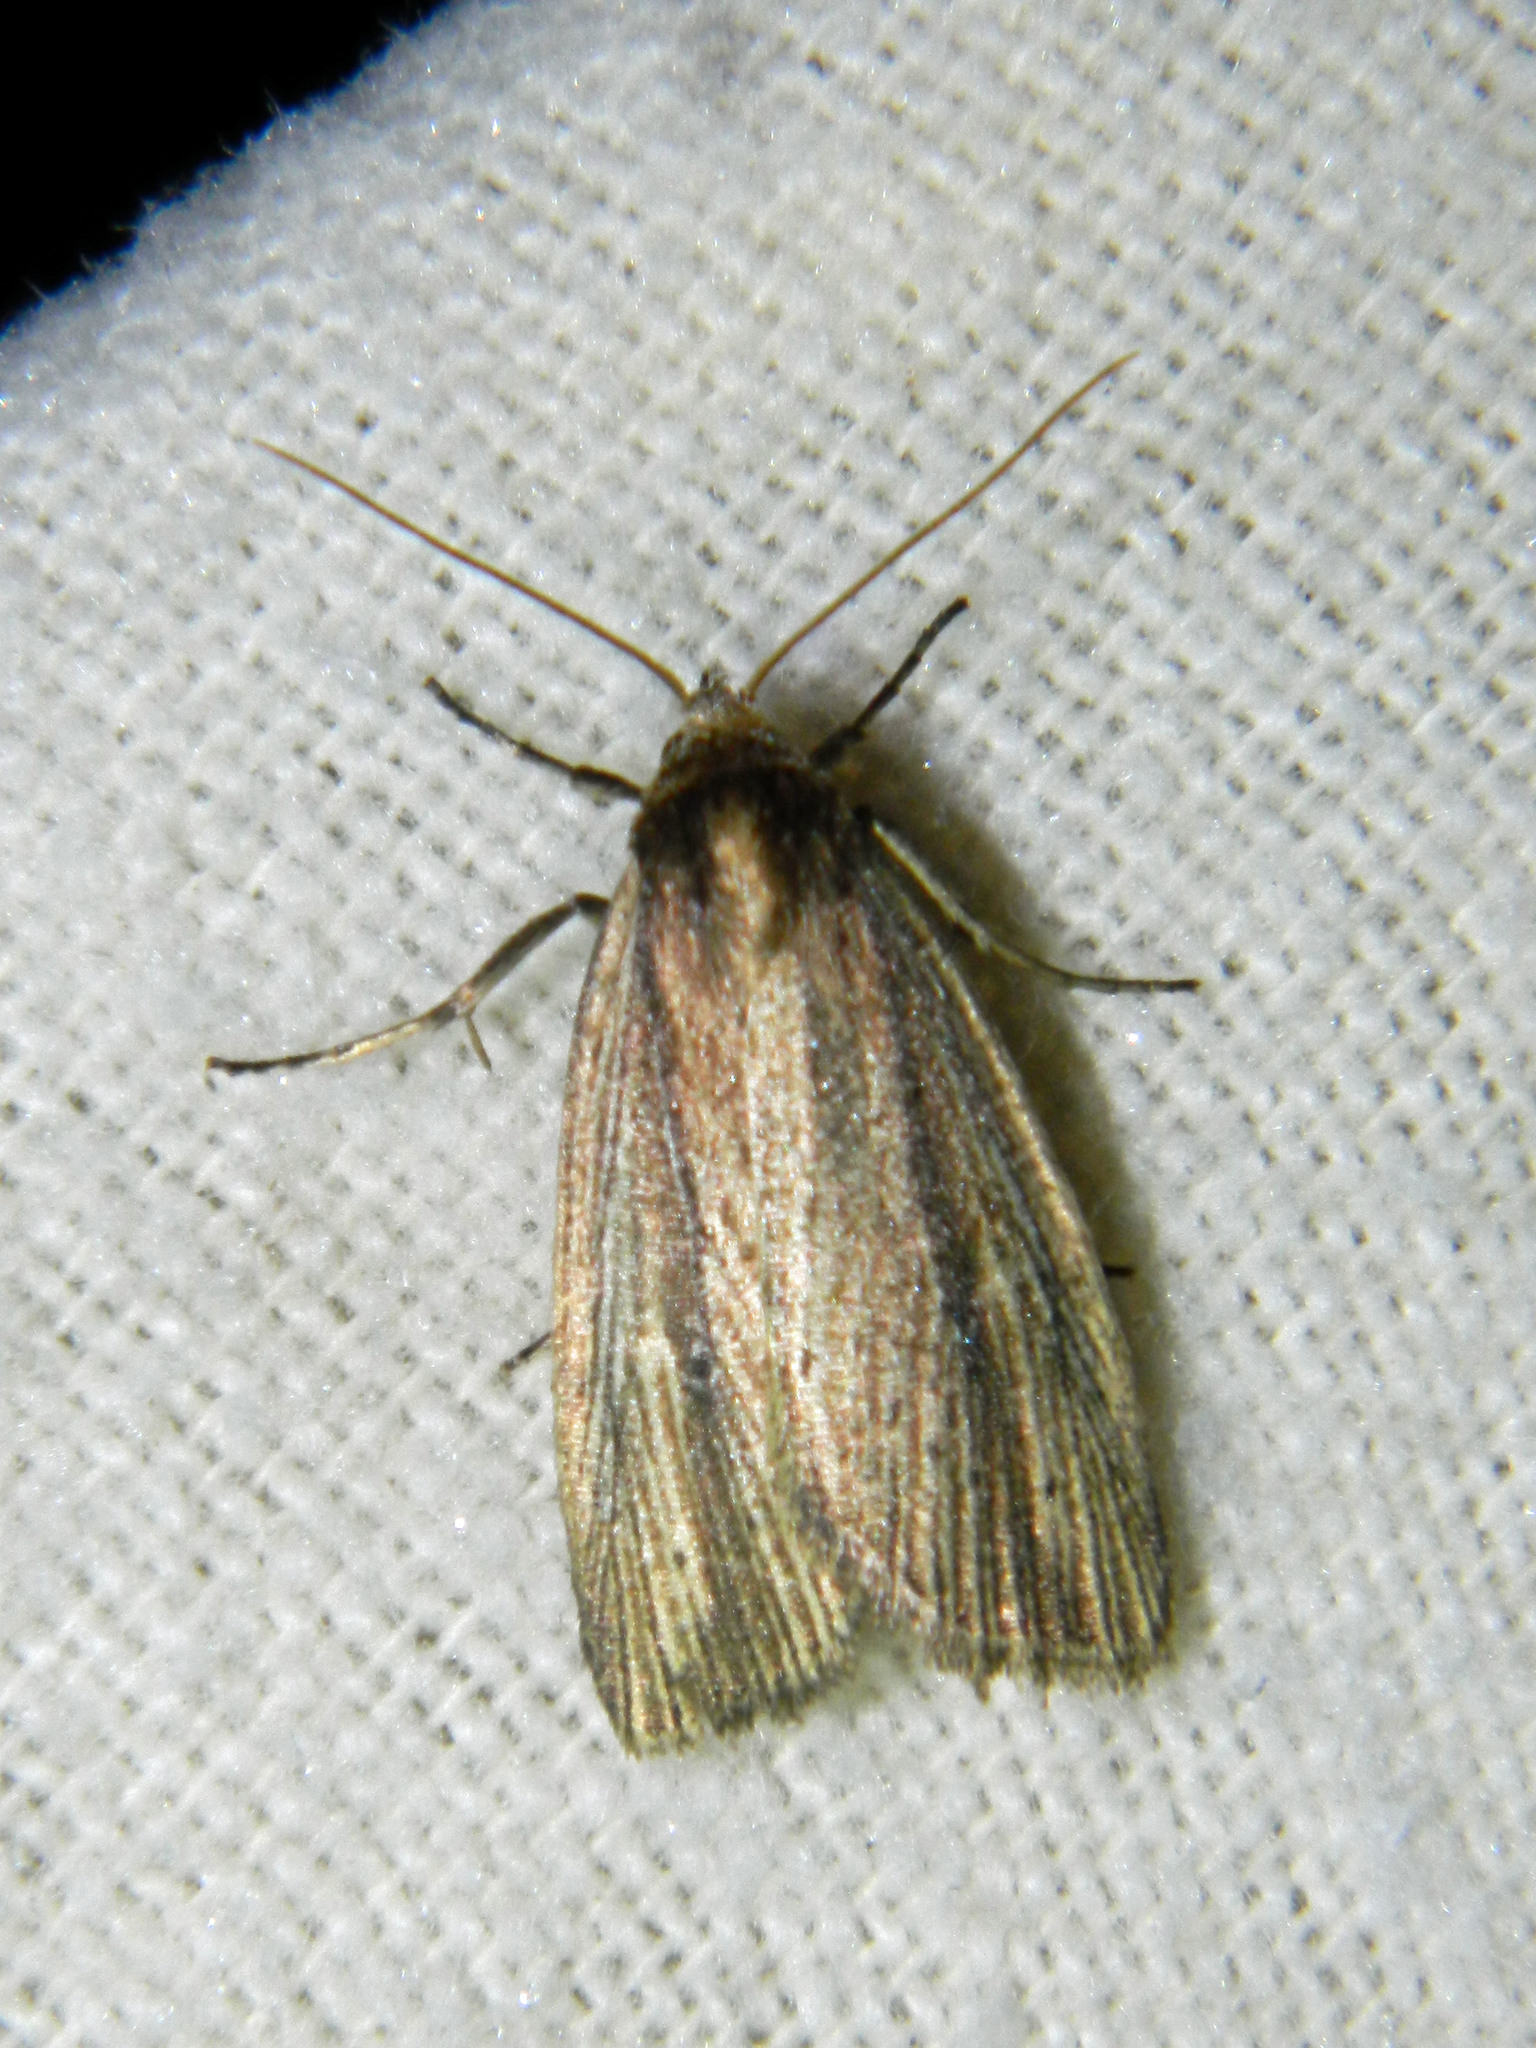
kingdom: Animalia
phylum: Arthropoda
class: Insecta
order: Lepidoptera
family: Noctuidae
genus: Photedes
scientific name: Photedes defecta
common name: Narrow-winged borer moth
